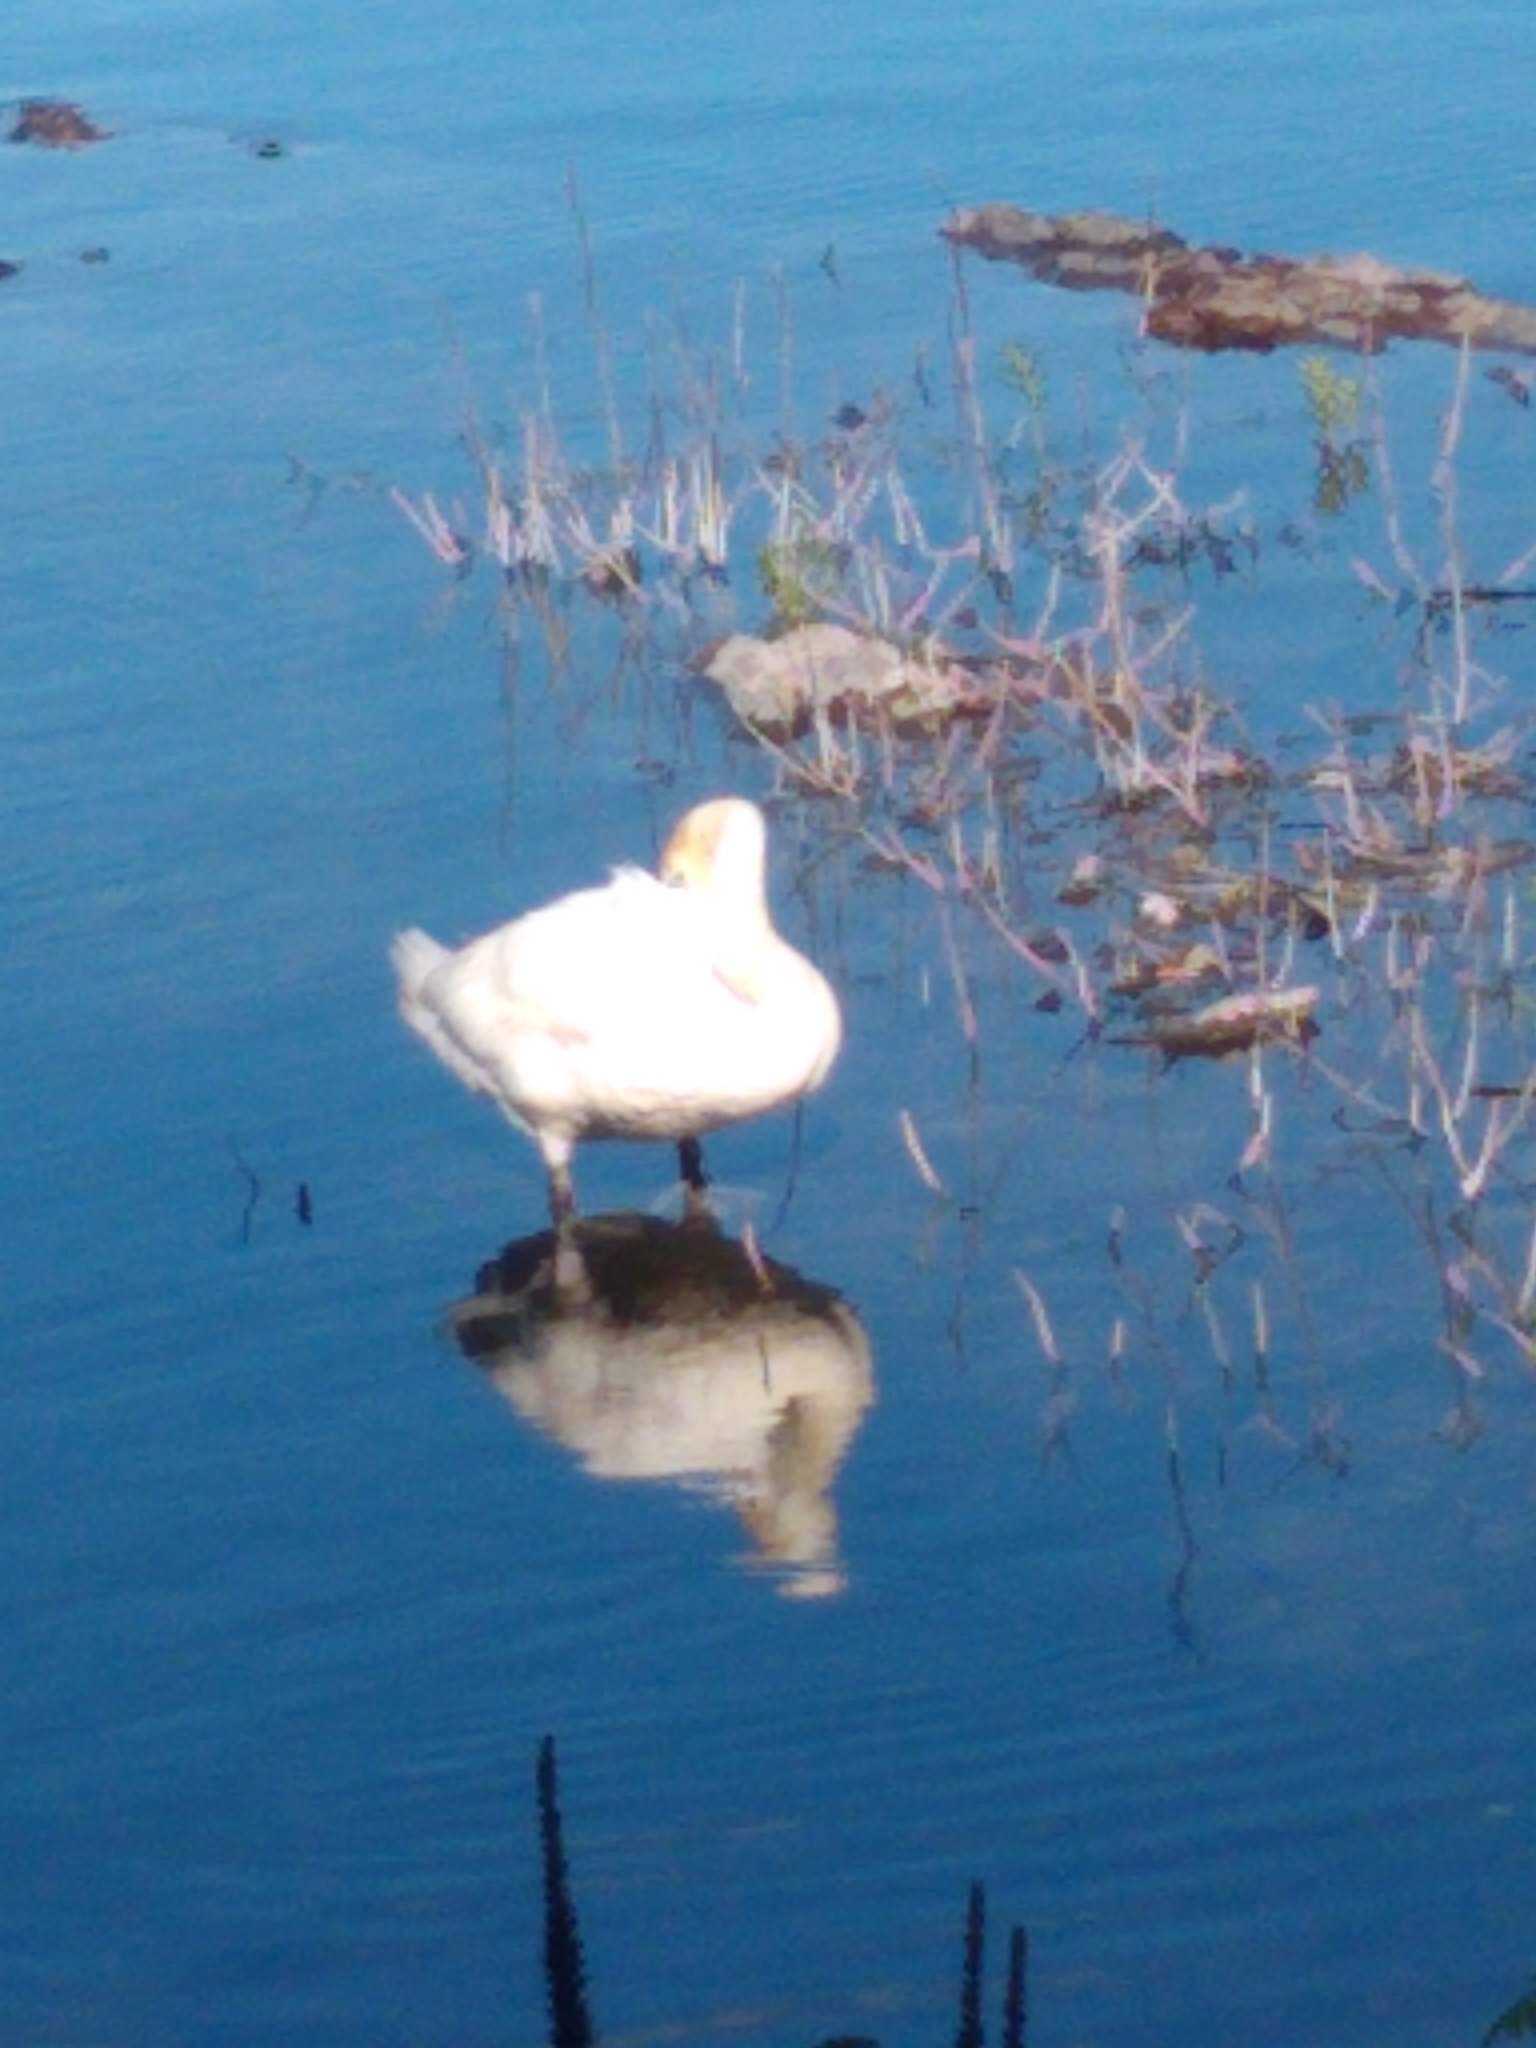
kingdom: Animalia
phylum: Chordata
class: Aves
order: Anseriformes
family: Anatidae
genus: Cygnus
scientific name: Cygnus olor
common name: Mute swan
